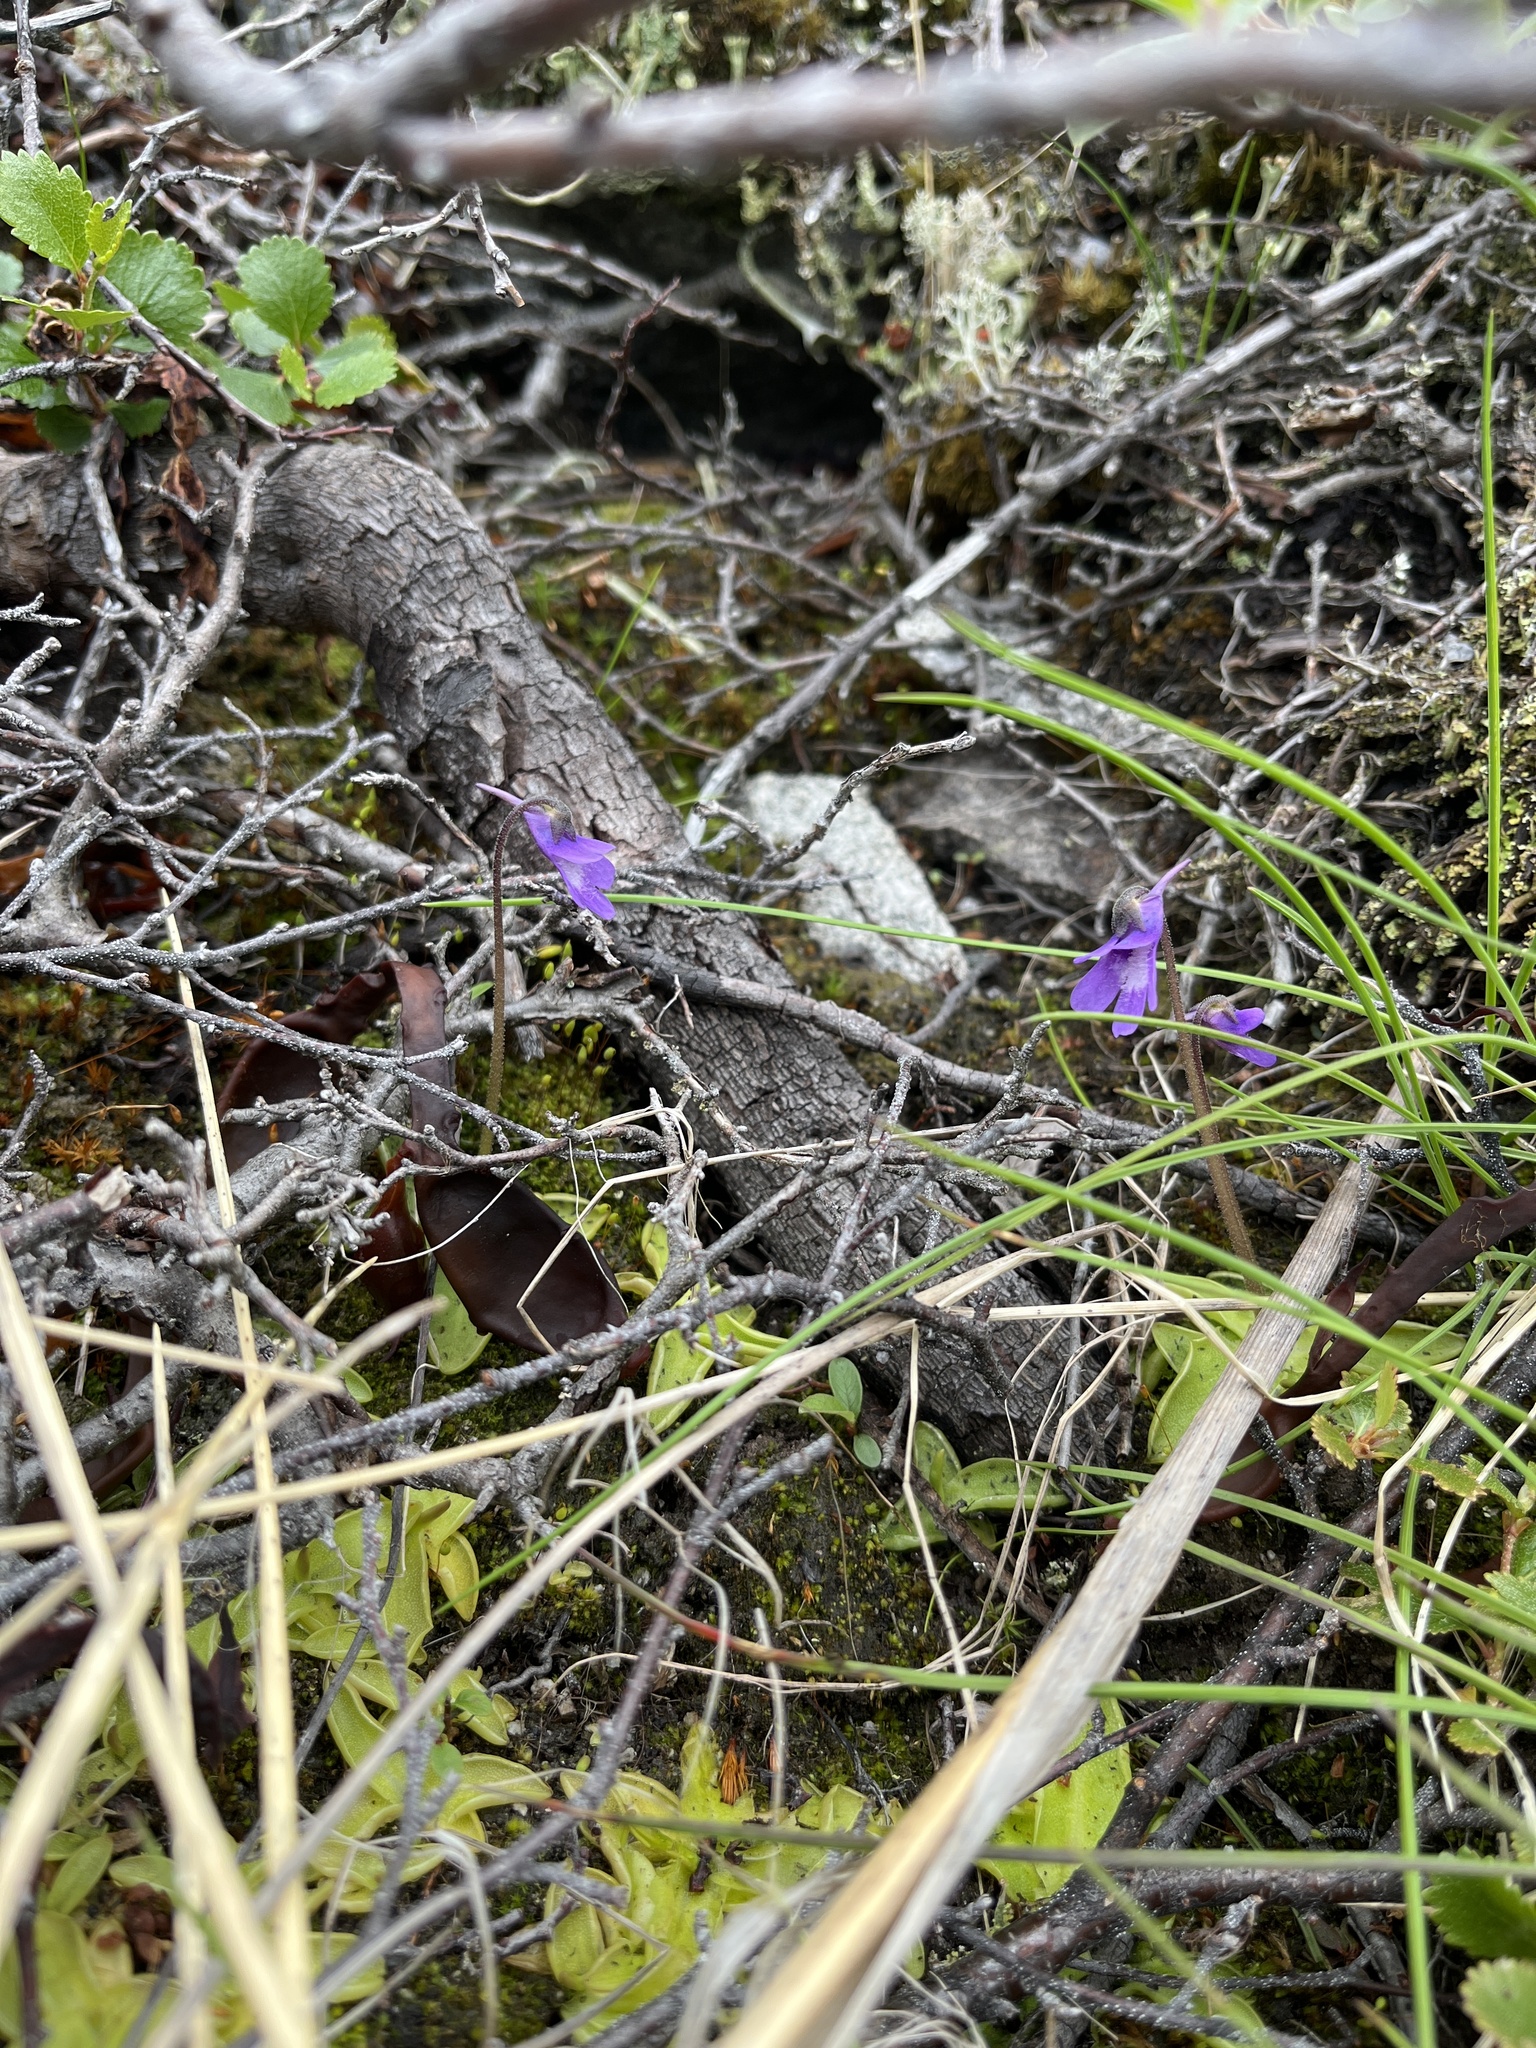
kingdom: Plantae
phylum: Tracheophyta
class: Magnoliopsida
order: Lamiales
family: Lentibulariaceae
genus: Pinguicula
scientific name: Pinguicula vulgaris
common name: Common butterwort
